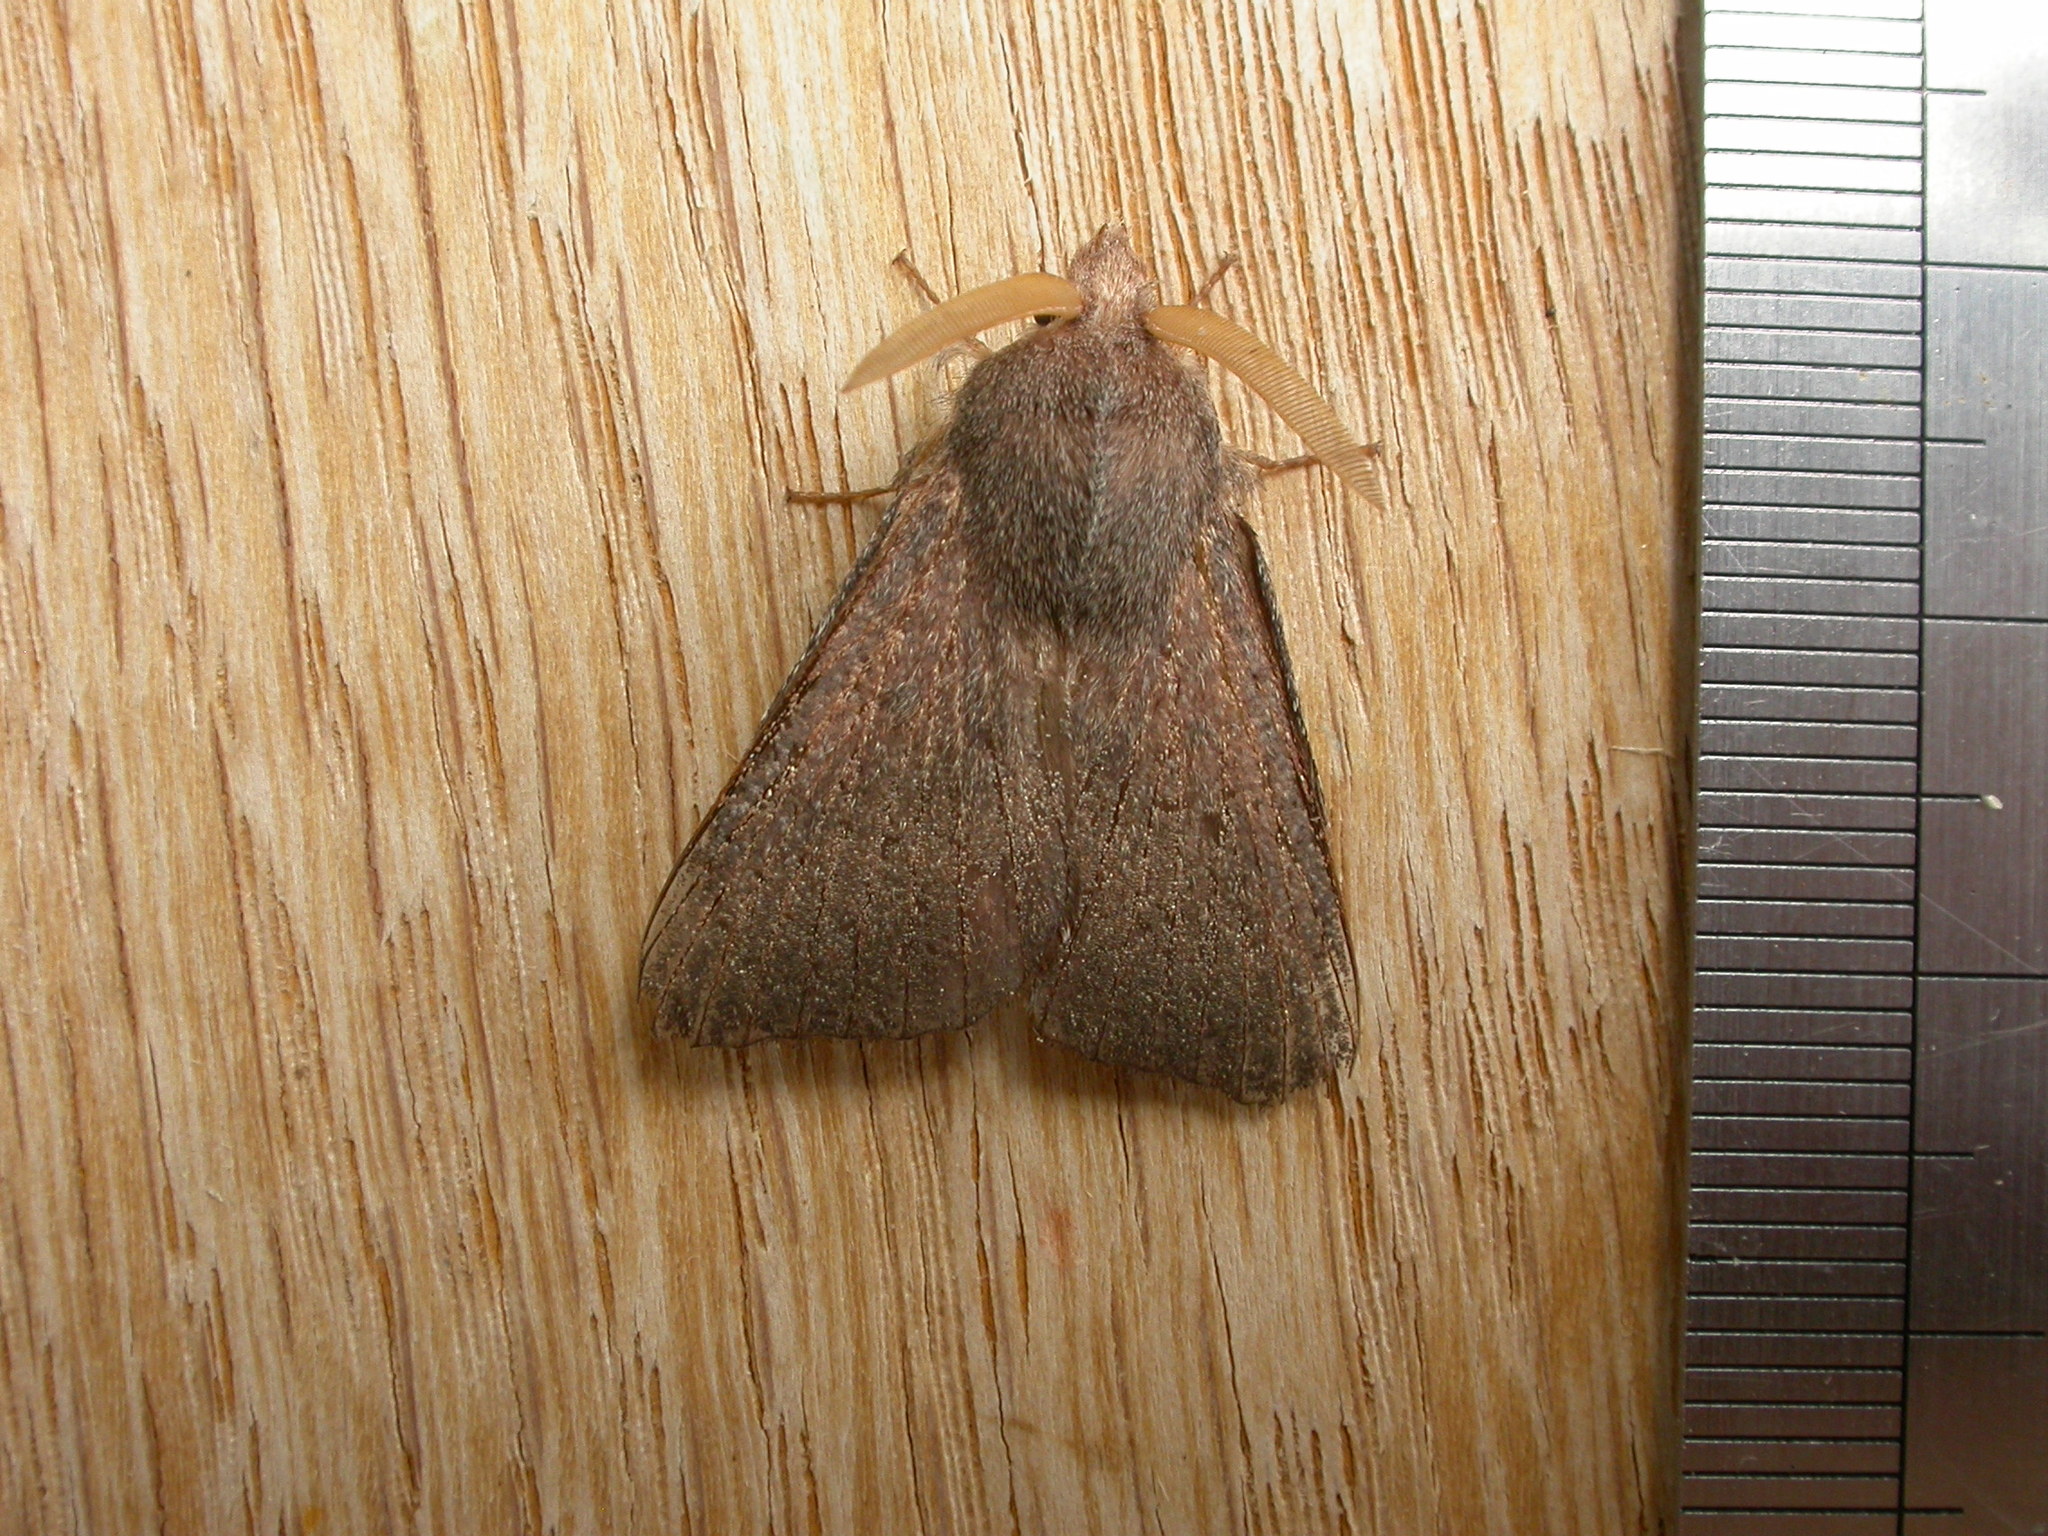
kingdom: Animalia
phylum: Arthropoda
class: Insecta
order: Lepidoptera
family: Lasiocampidae
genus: Pararguda
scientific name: Pararguda rufescens
